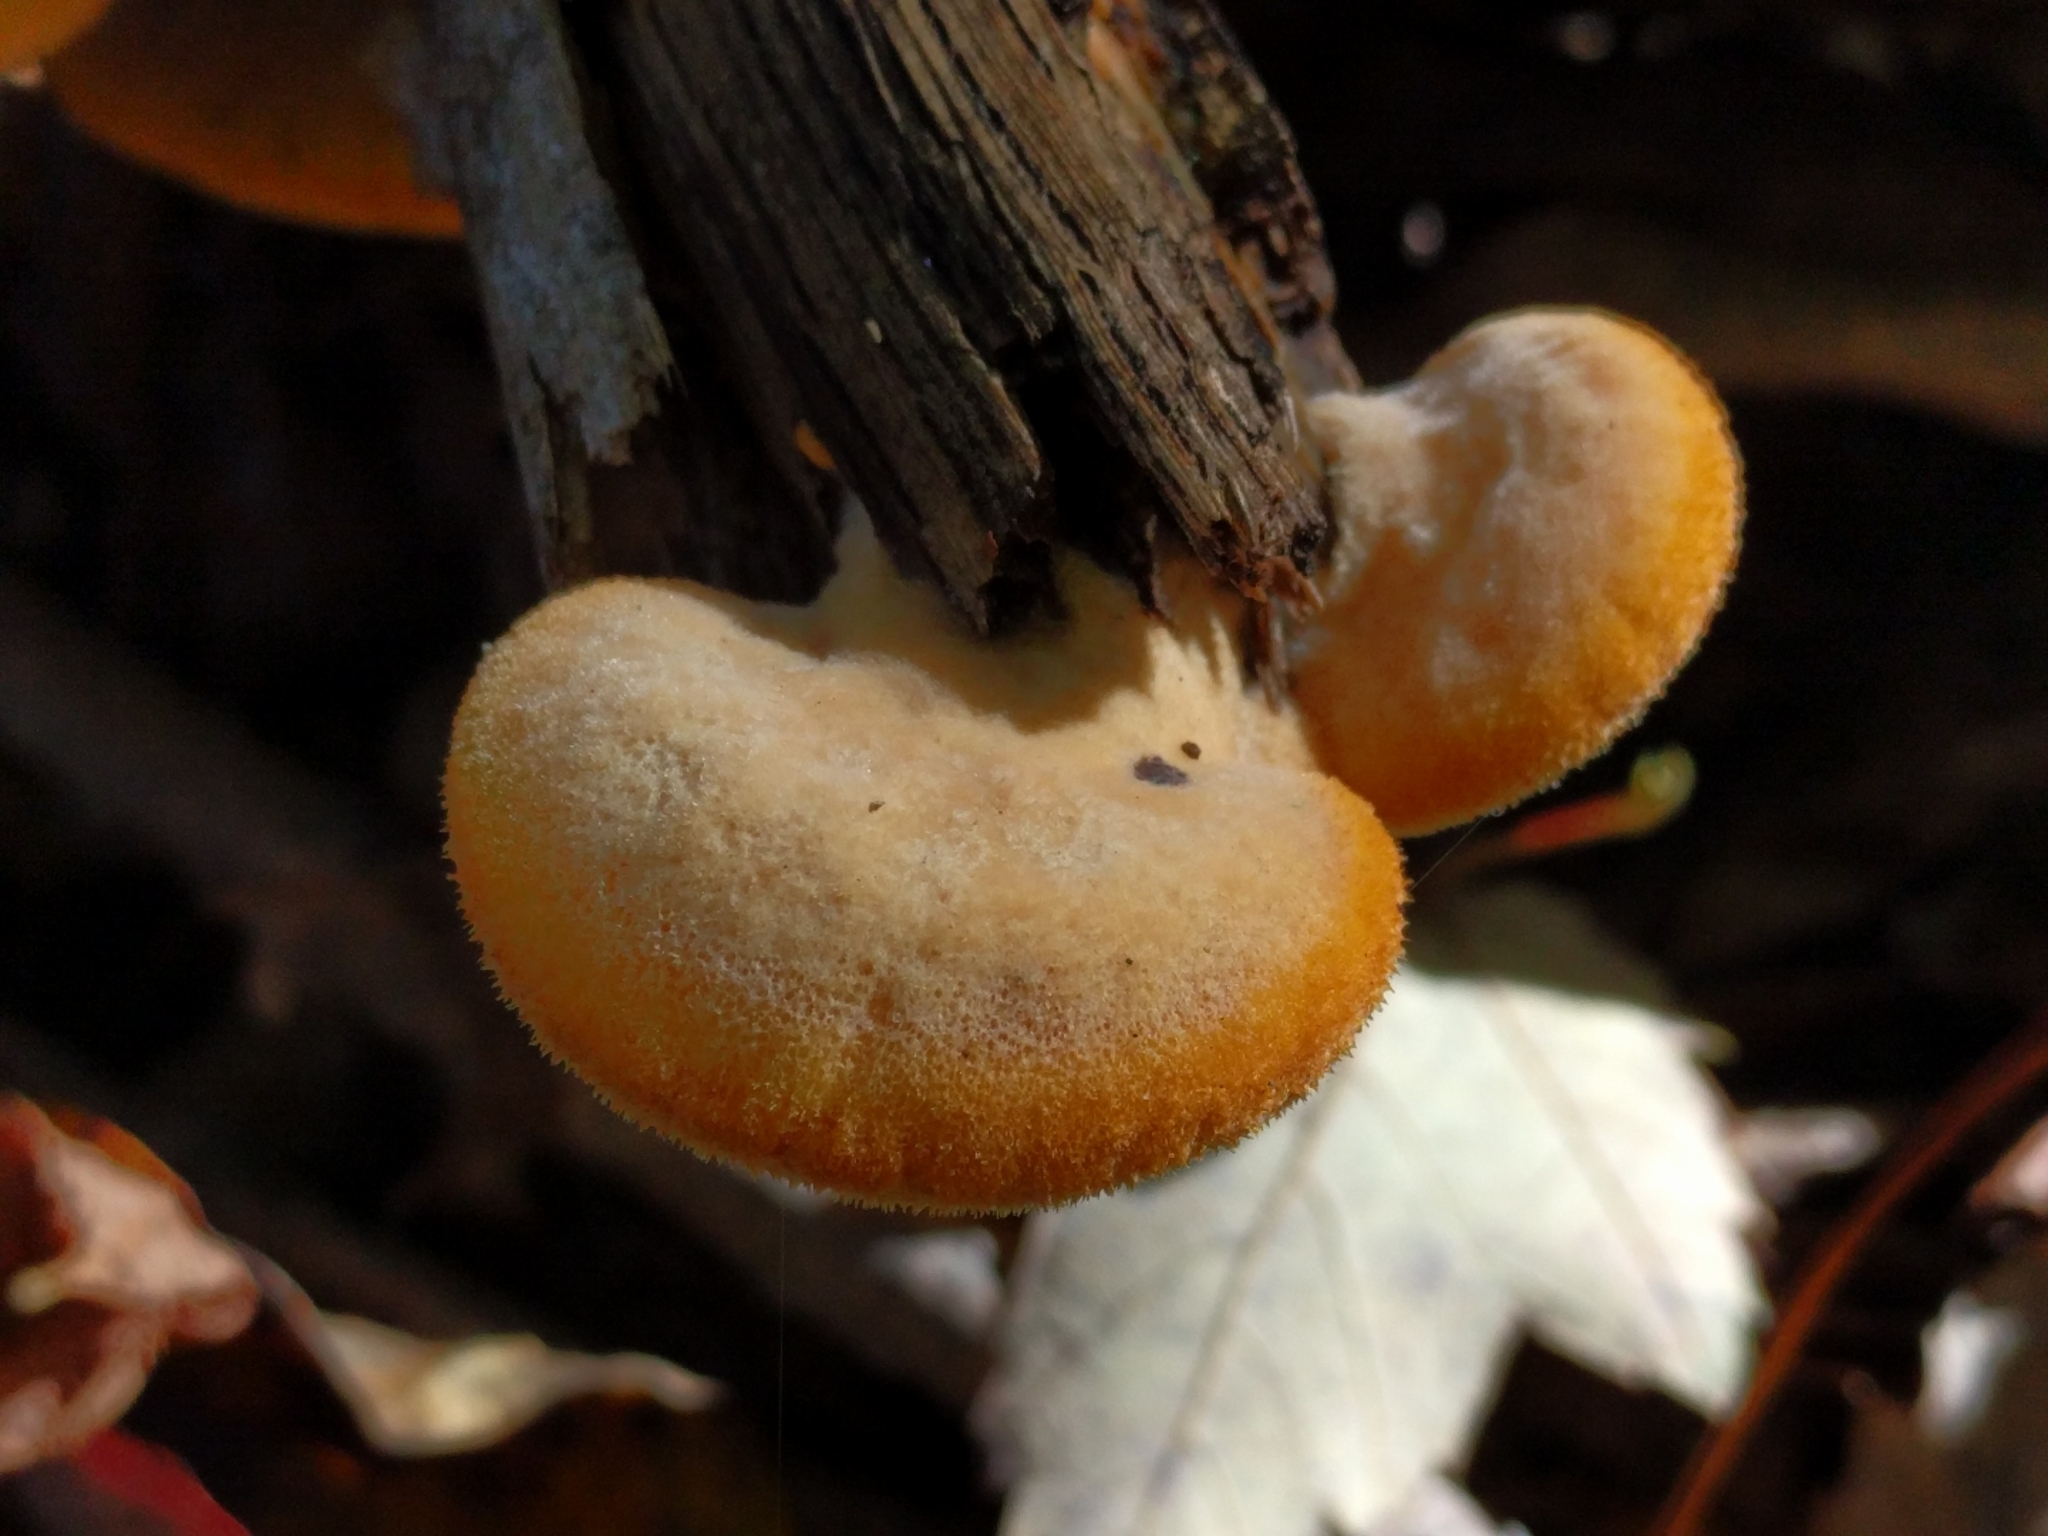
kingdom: Fungi
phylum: Basidiomycota
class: Agaricomycetes
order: Agaricales
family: Phyllotopsidaceae
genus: Phyllotopsis
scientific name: Phyllotopsis nidulans
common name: Orange mock oyster
